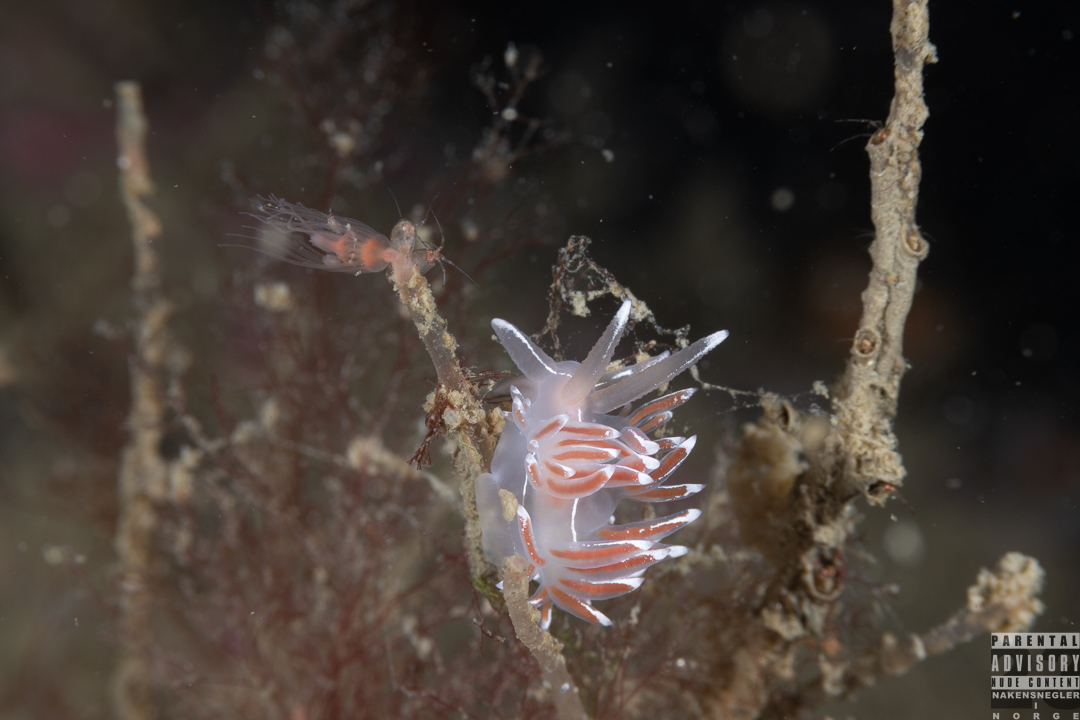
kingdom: Animalia
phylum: Mollusca
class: Gastropoda
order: Nudibranchia
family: Coryphellidae
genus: Coryphella
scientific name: Coryphella lineata
